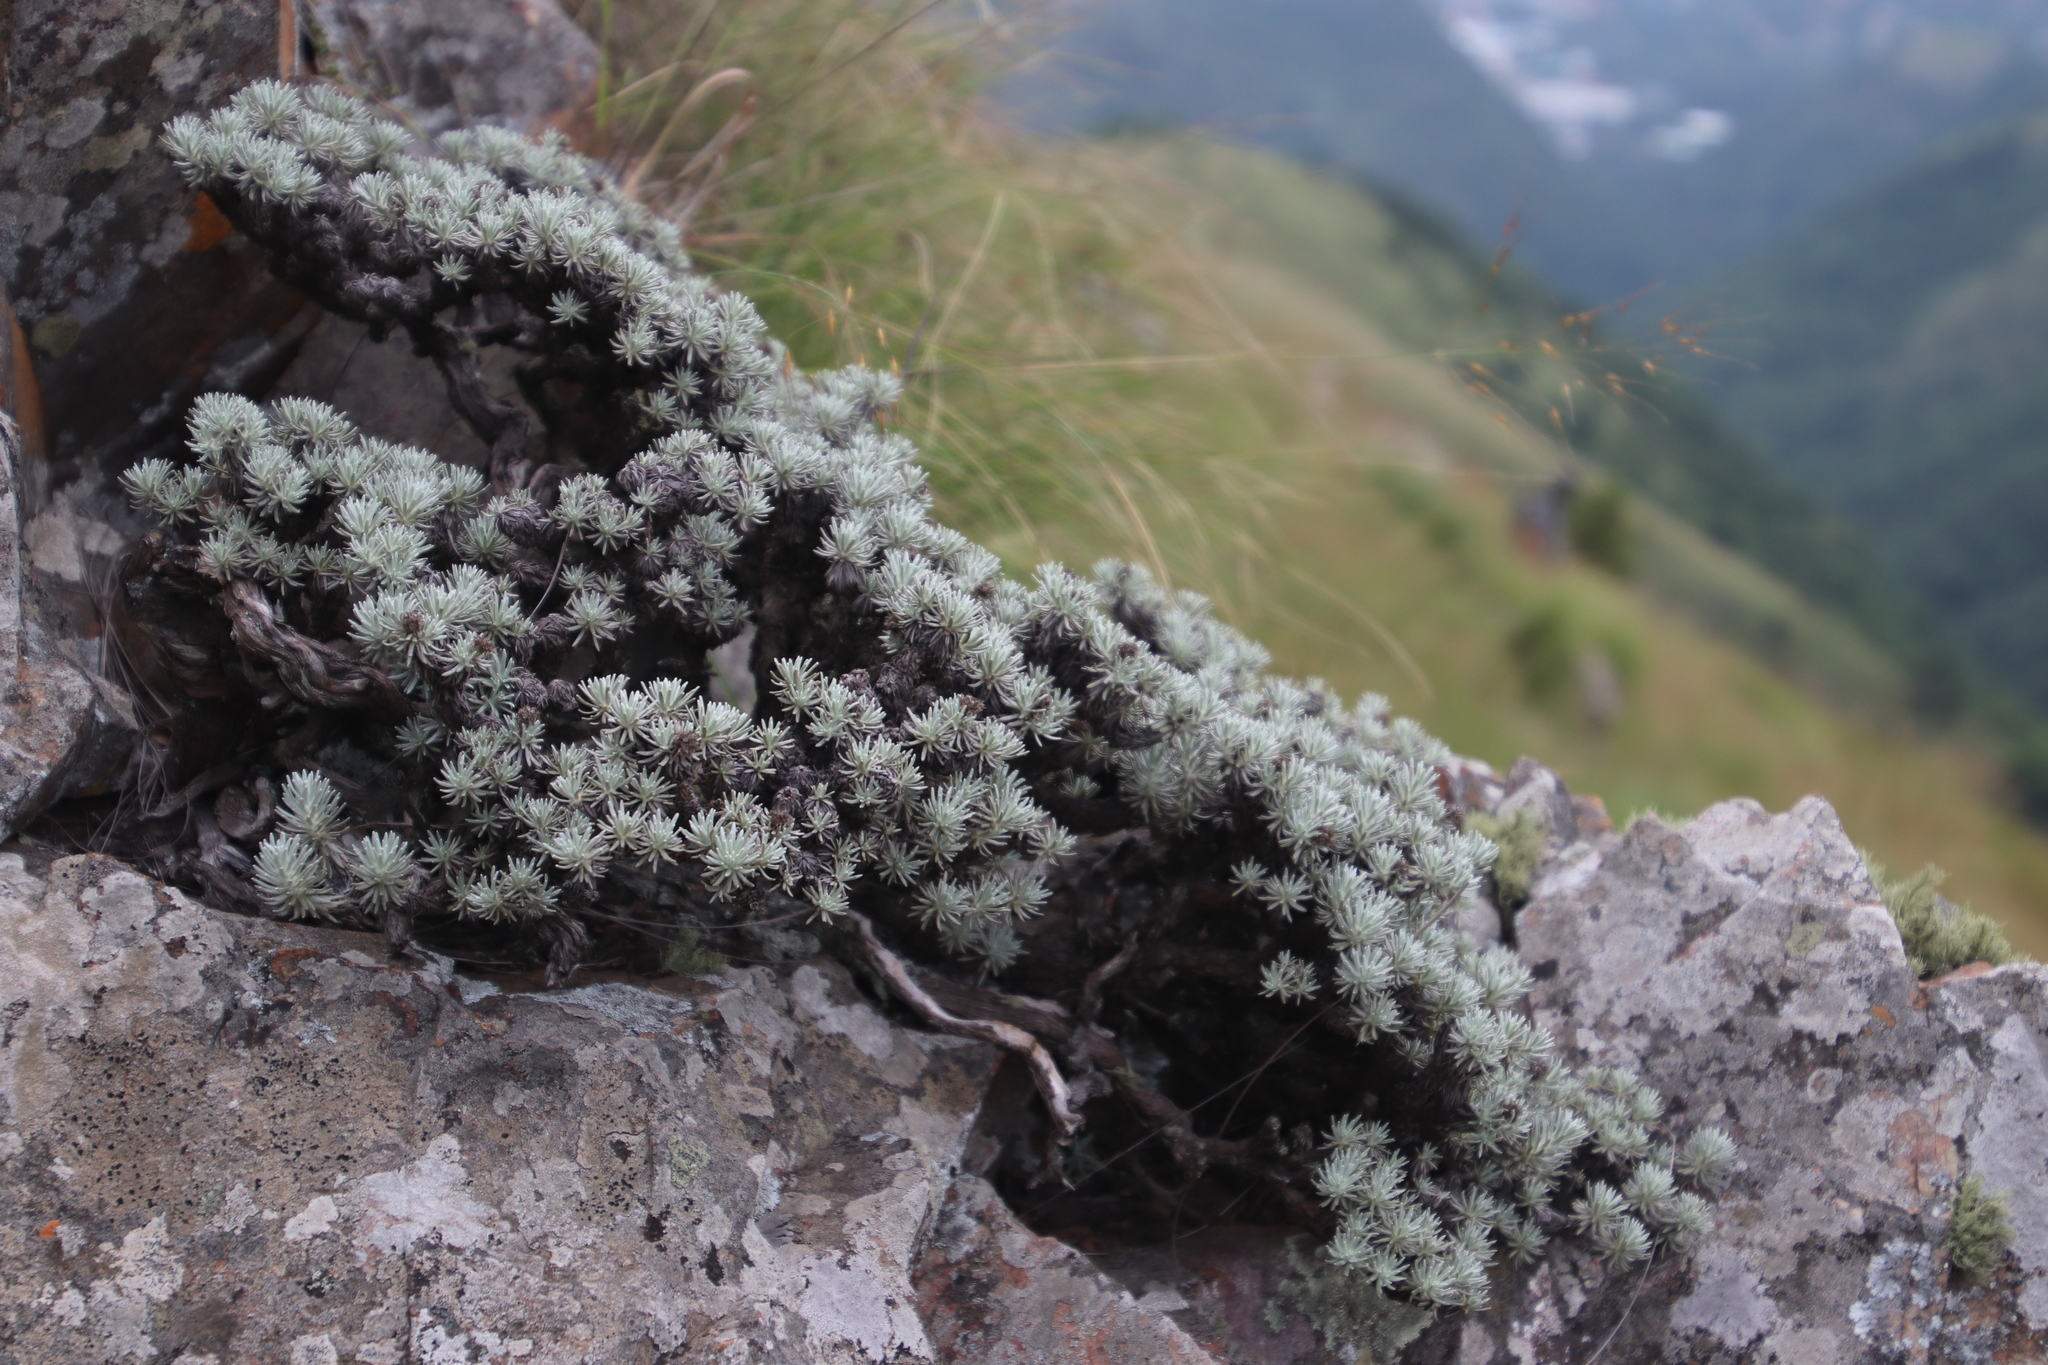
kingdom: Plantae
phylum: Tracheophyta
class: Magnoliopsida
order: Asterales
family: Asteraceae
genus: Helichrysum
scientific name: Helichrysum galpinii
